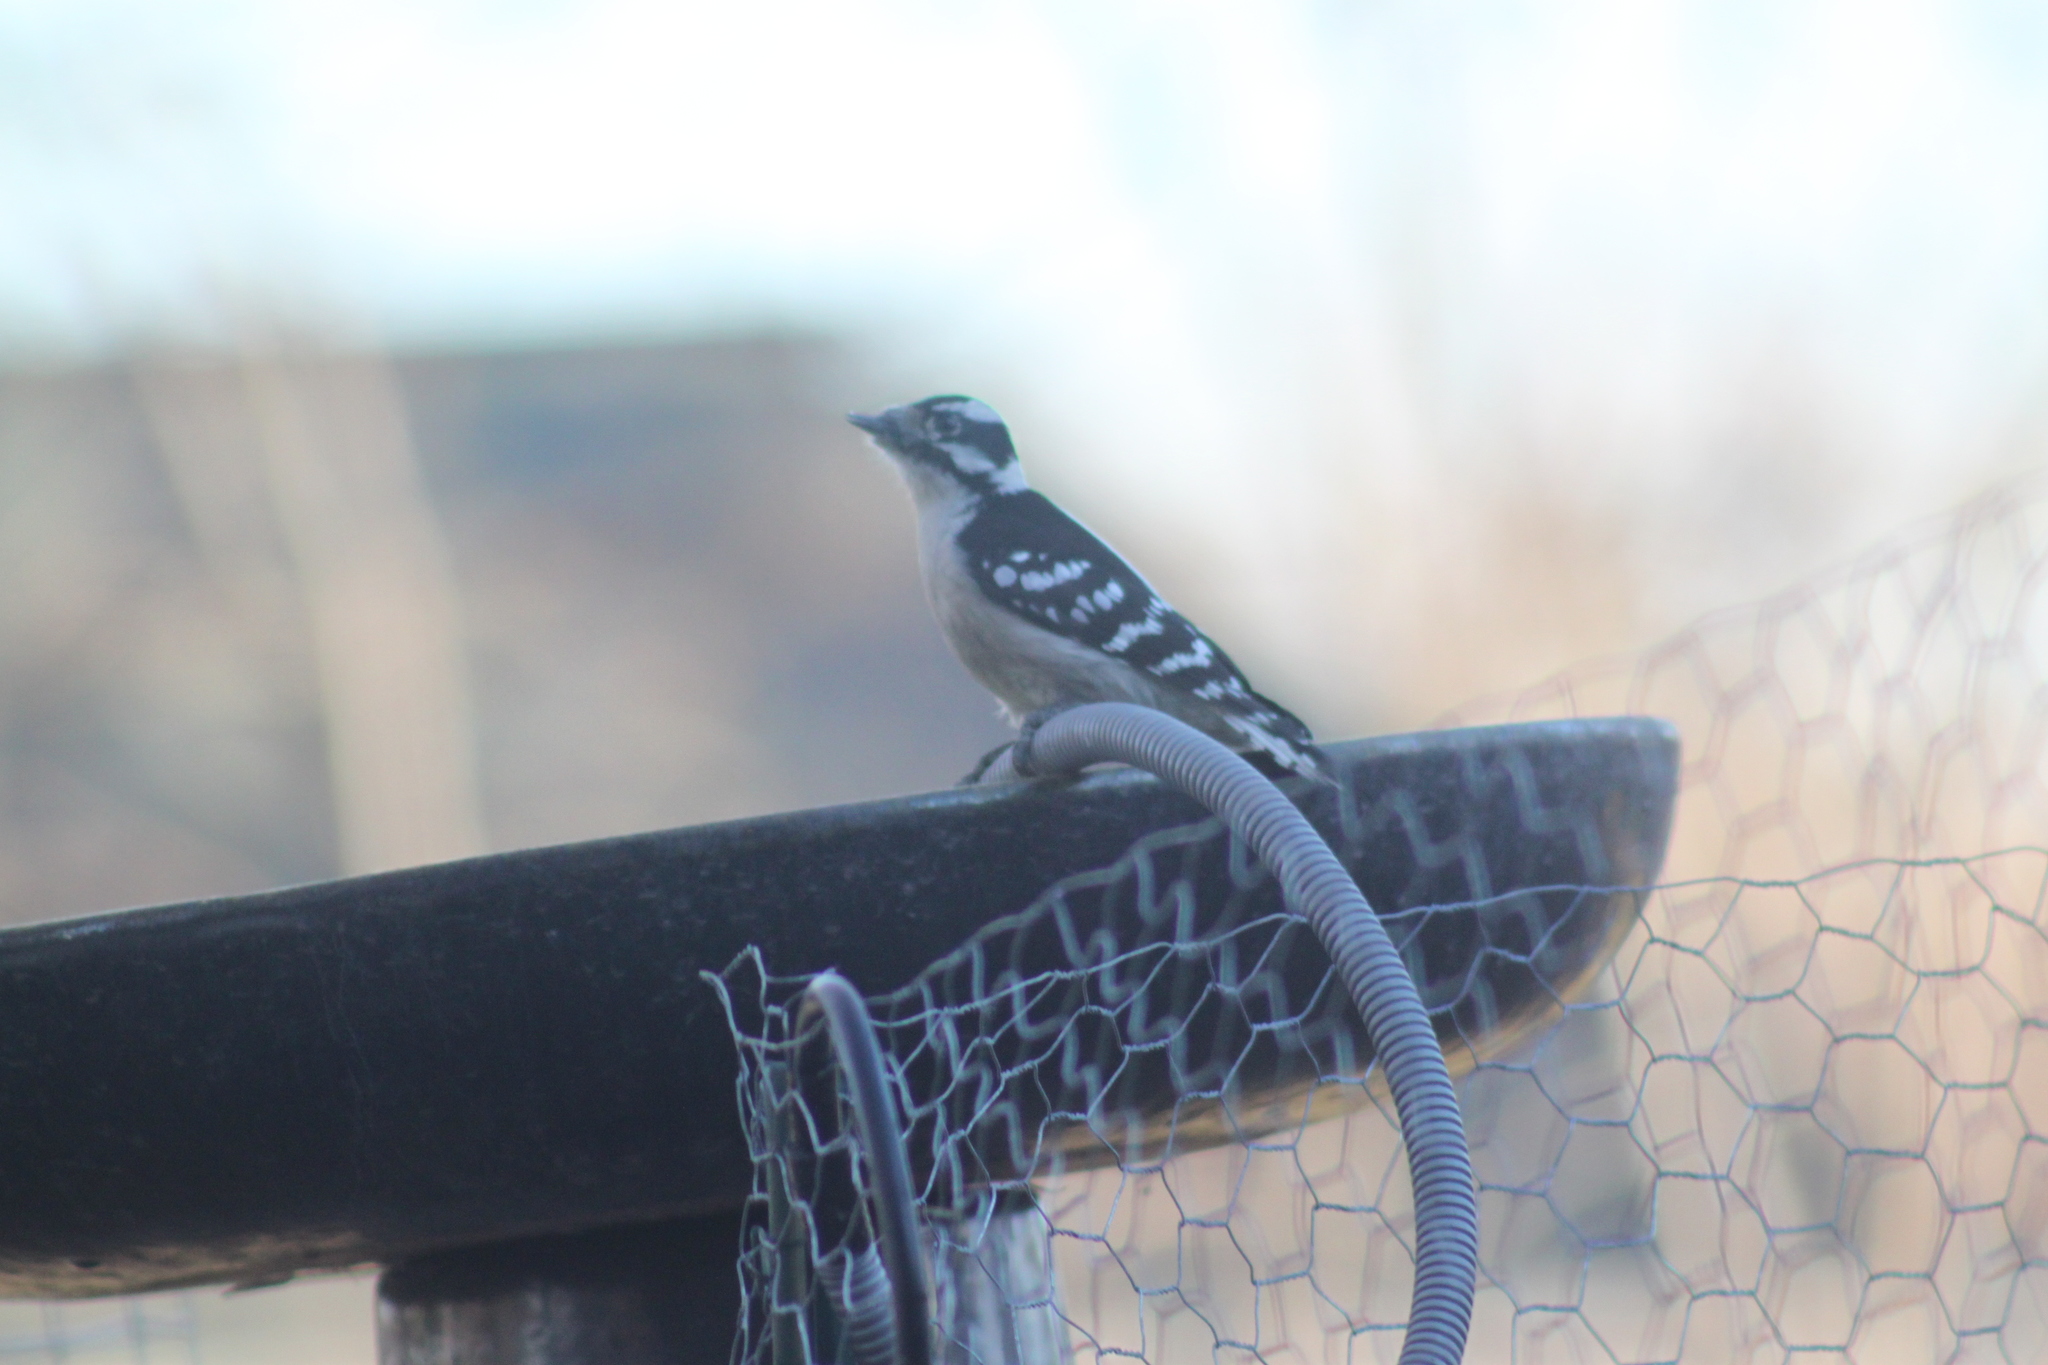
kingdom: Animalia
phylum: Chordata
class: Aves
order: Piciformes
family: Picidae
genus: Dryobates
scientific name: Dryobates pubescens
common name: Downy woodpecker
